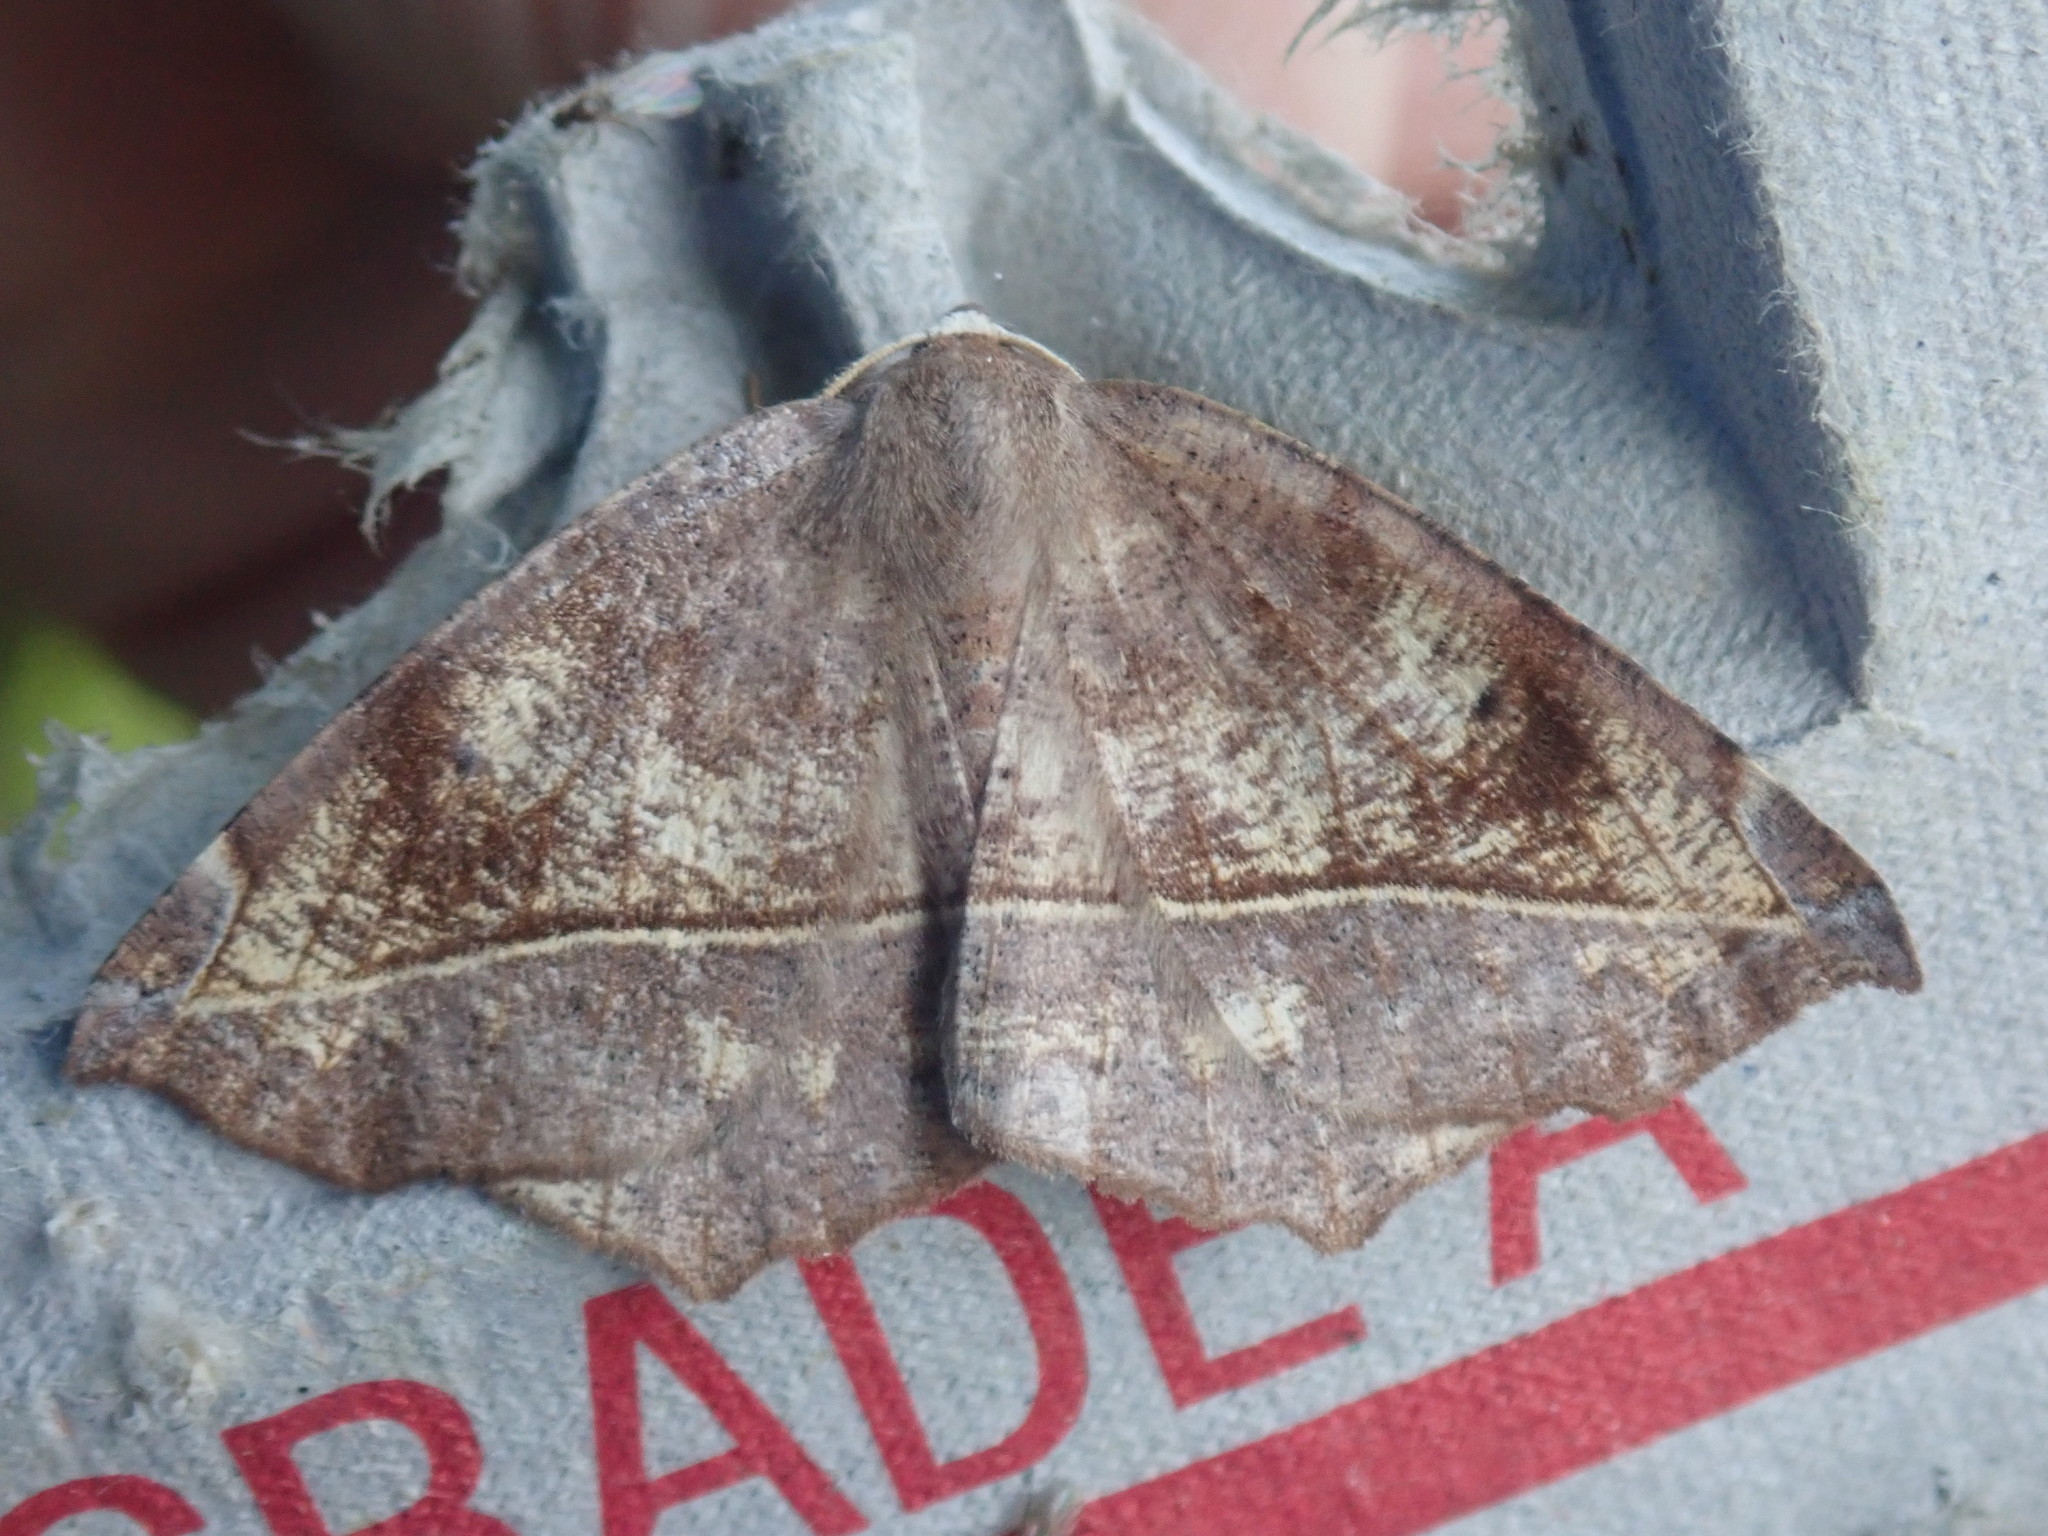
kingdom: Animalia
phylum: Arthropoda
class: Insecta
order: Lepidoptera
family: Geometridae
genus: Eutrapela
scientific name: Eutrapela clemataria
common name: Curved-toothed geometer
